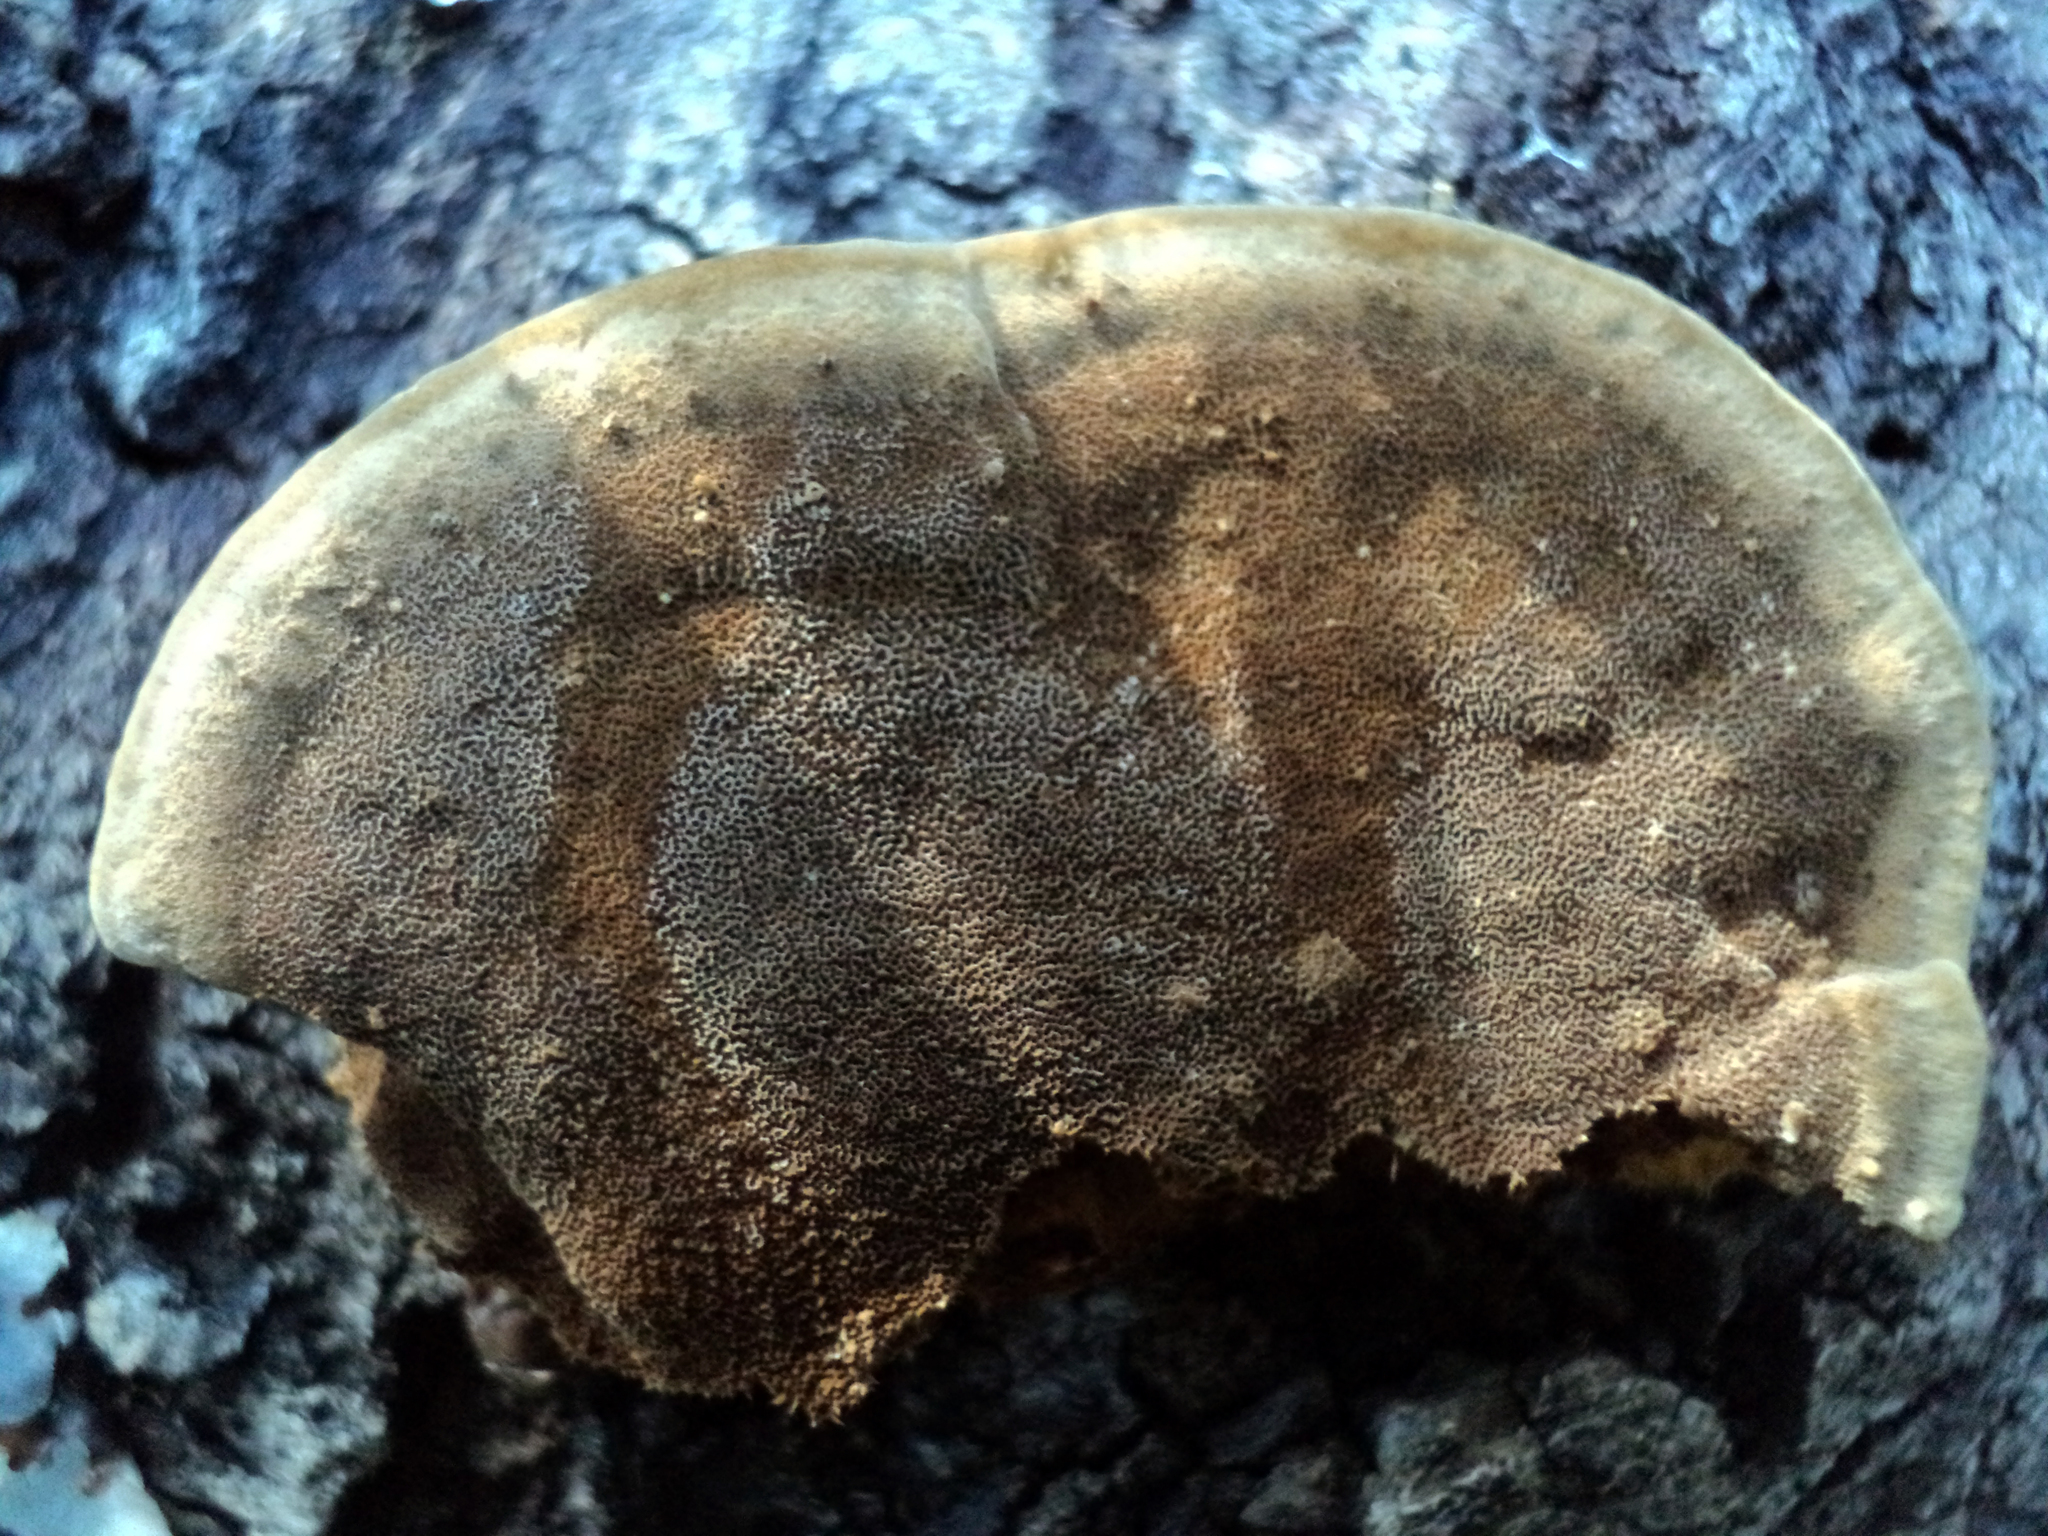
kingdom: Fungi
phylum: Basidiomycota
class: Agaricomycetes
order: Hymenochaetales
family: Hymenochaetaceae
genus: Phellinus
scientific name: Phellinus gilvus
